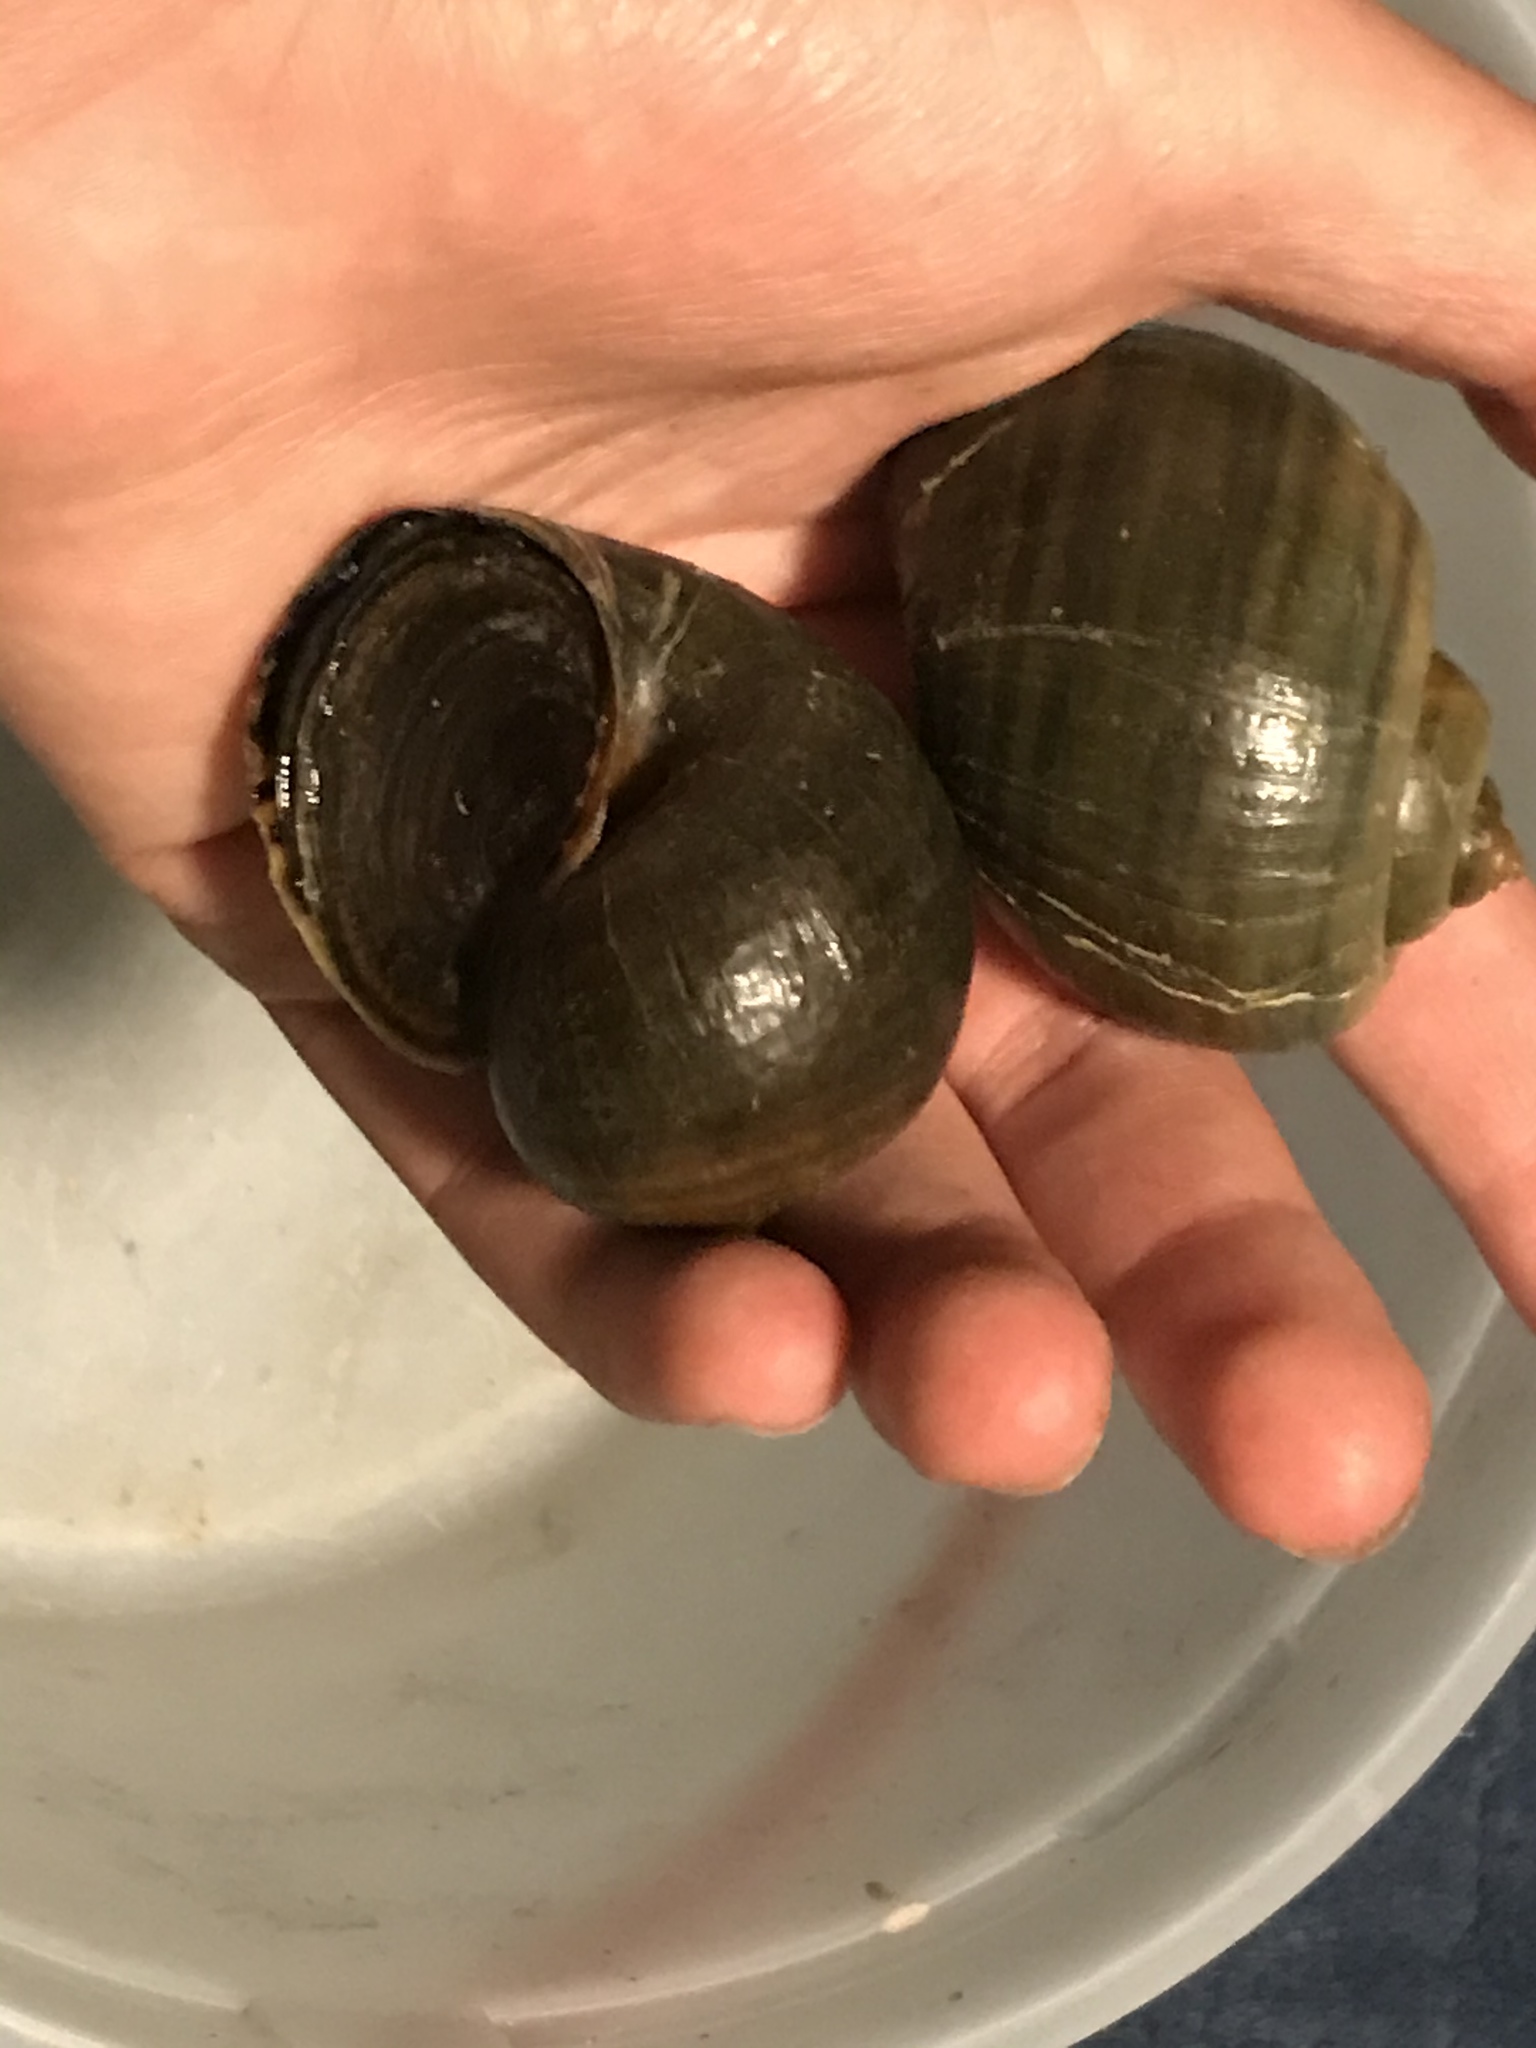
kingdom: Animalia
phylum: Mollusca
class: Gastropoda
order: Architaenioglossa
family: Ampullariidae
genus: Pomacea
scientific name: Pomacea canaliculata
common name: Channeled applesnail
